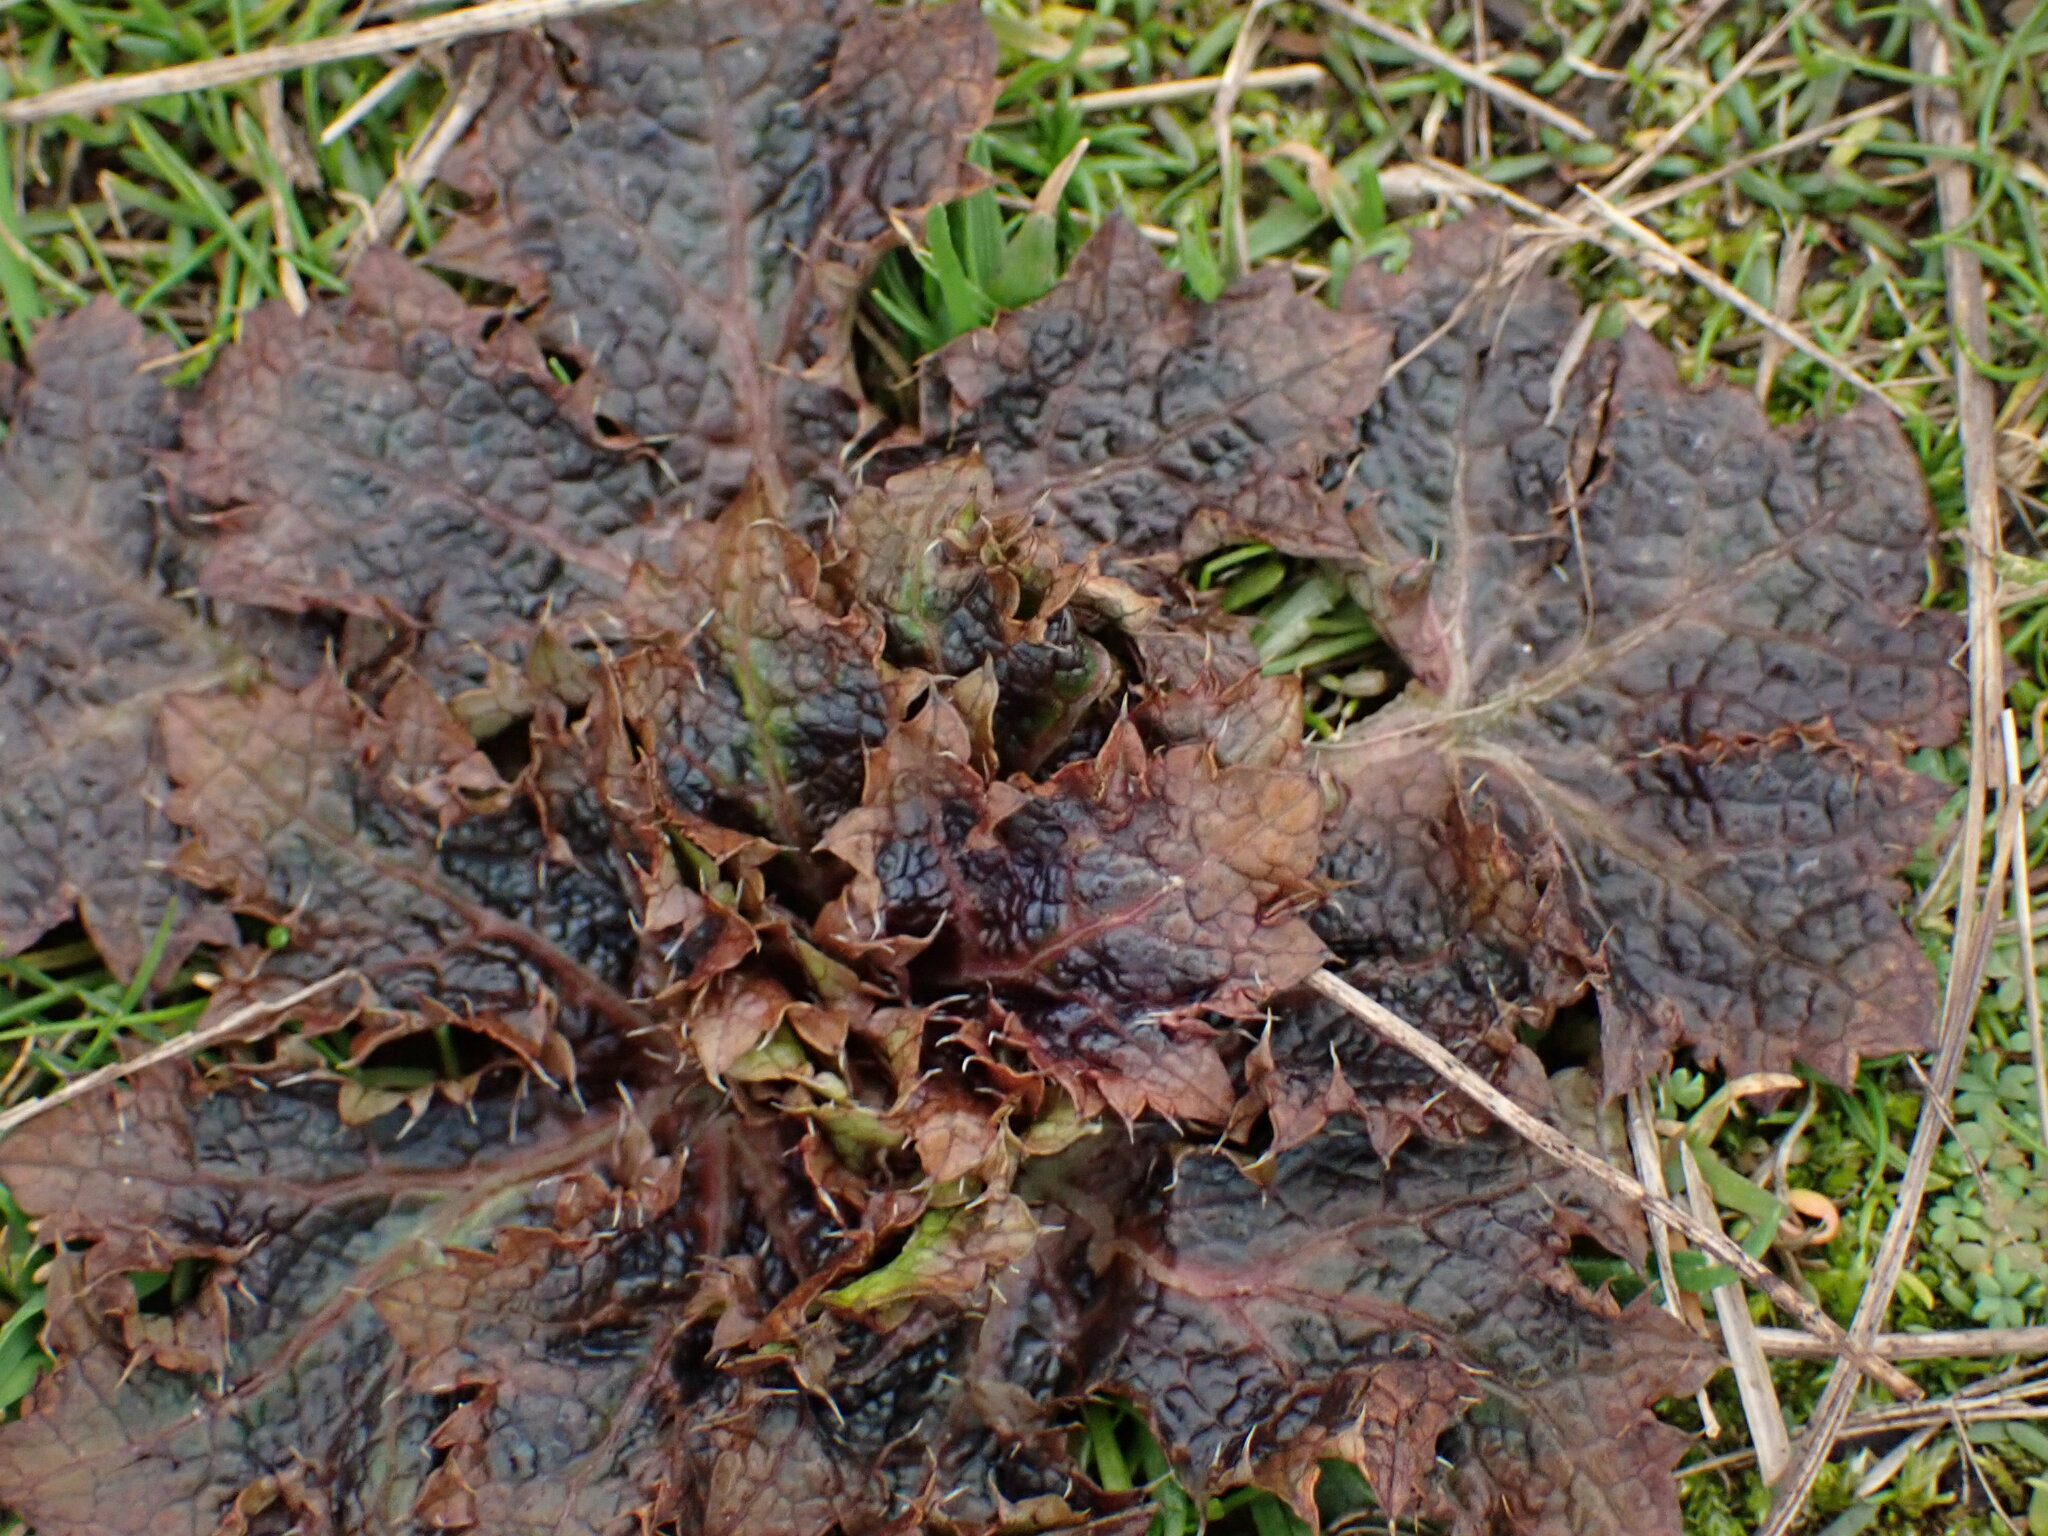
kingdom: Plantae
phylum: Tracheophyta
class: Magnoliopsida
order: Apiales
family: Apiaceae
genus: Sanicula
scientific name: Sanicula crassicaulis
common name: Western snakeroot
